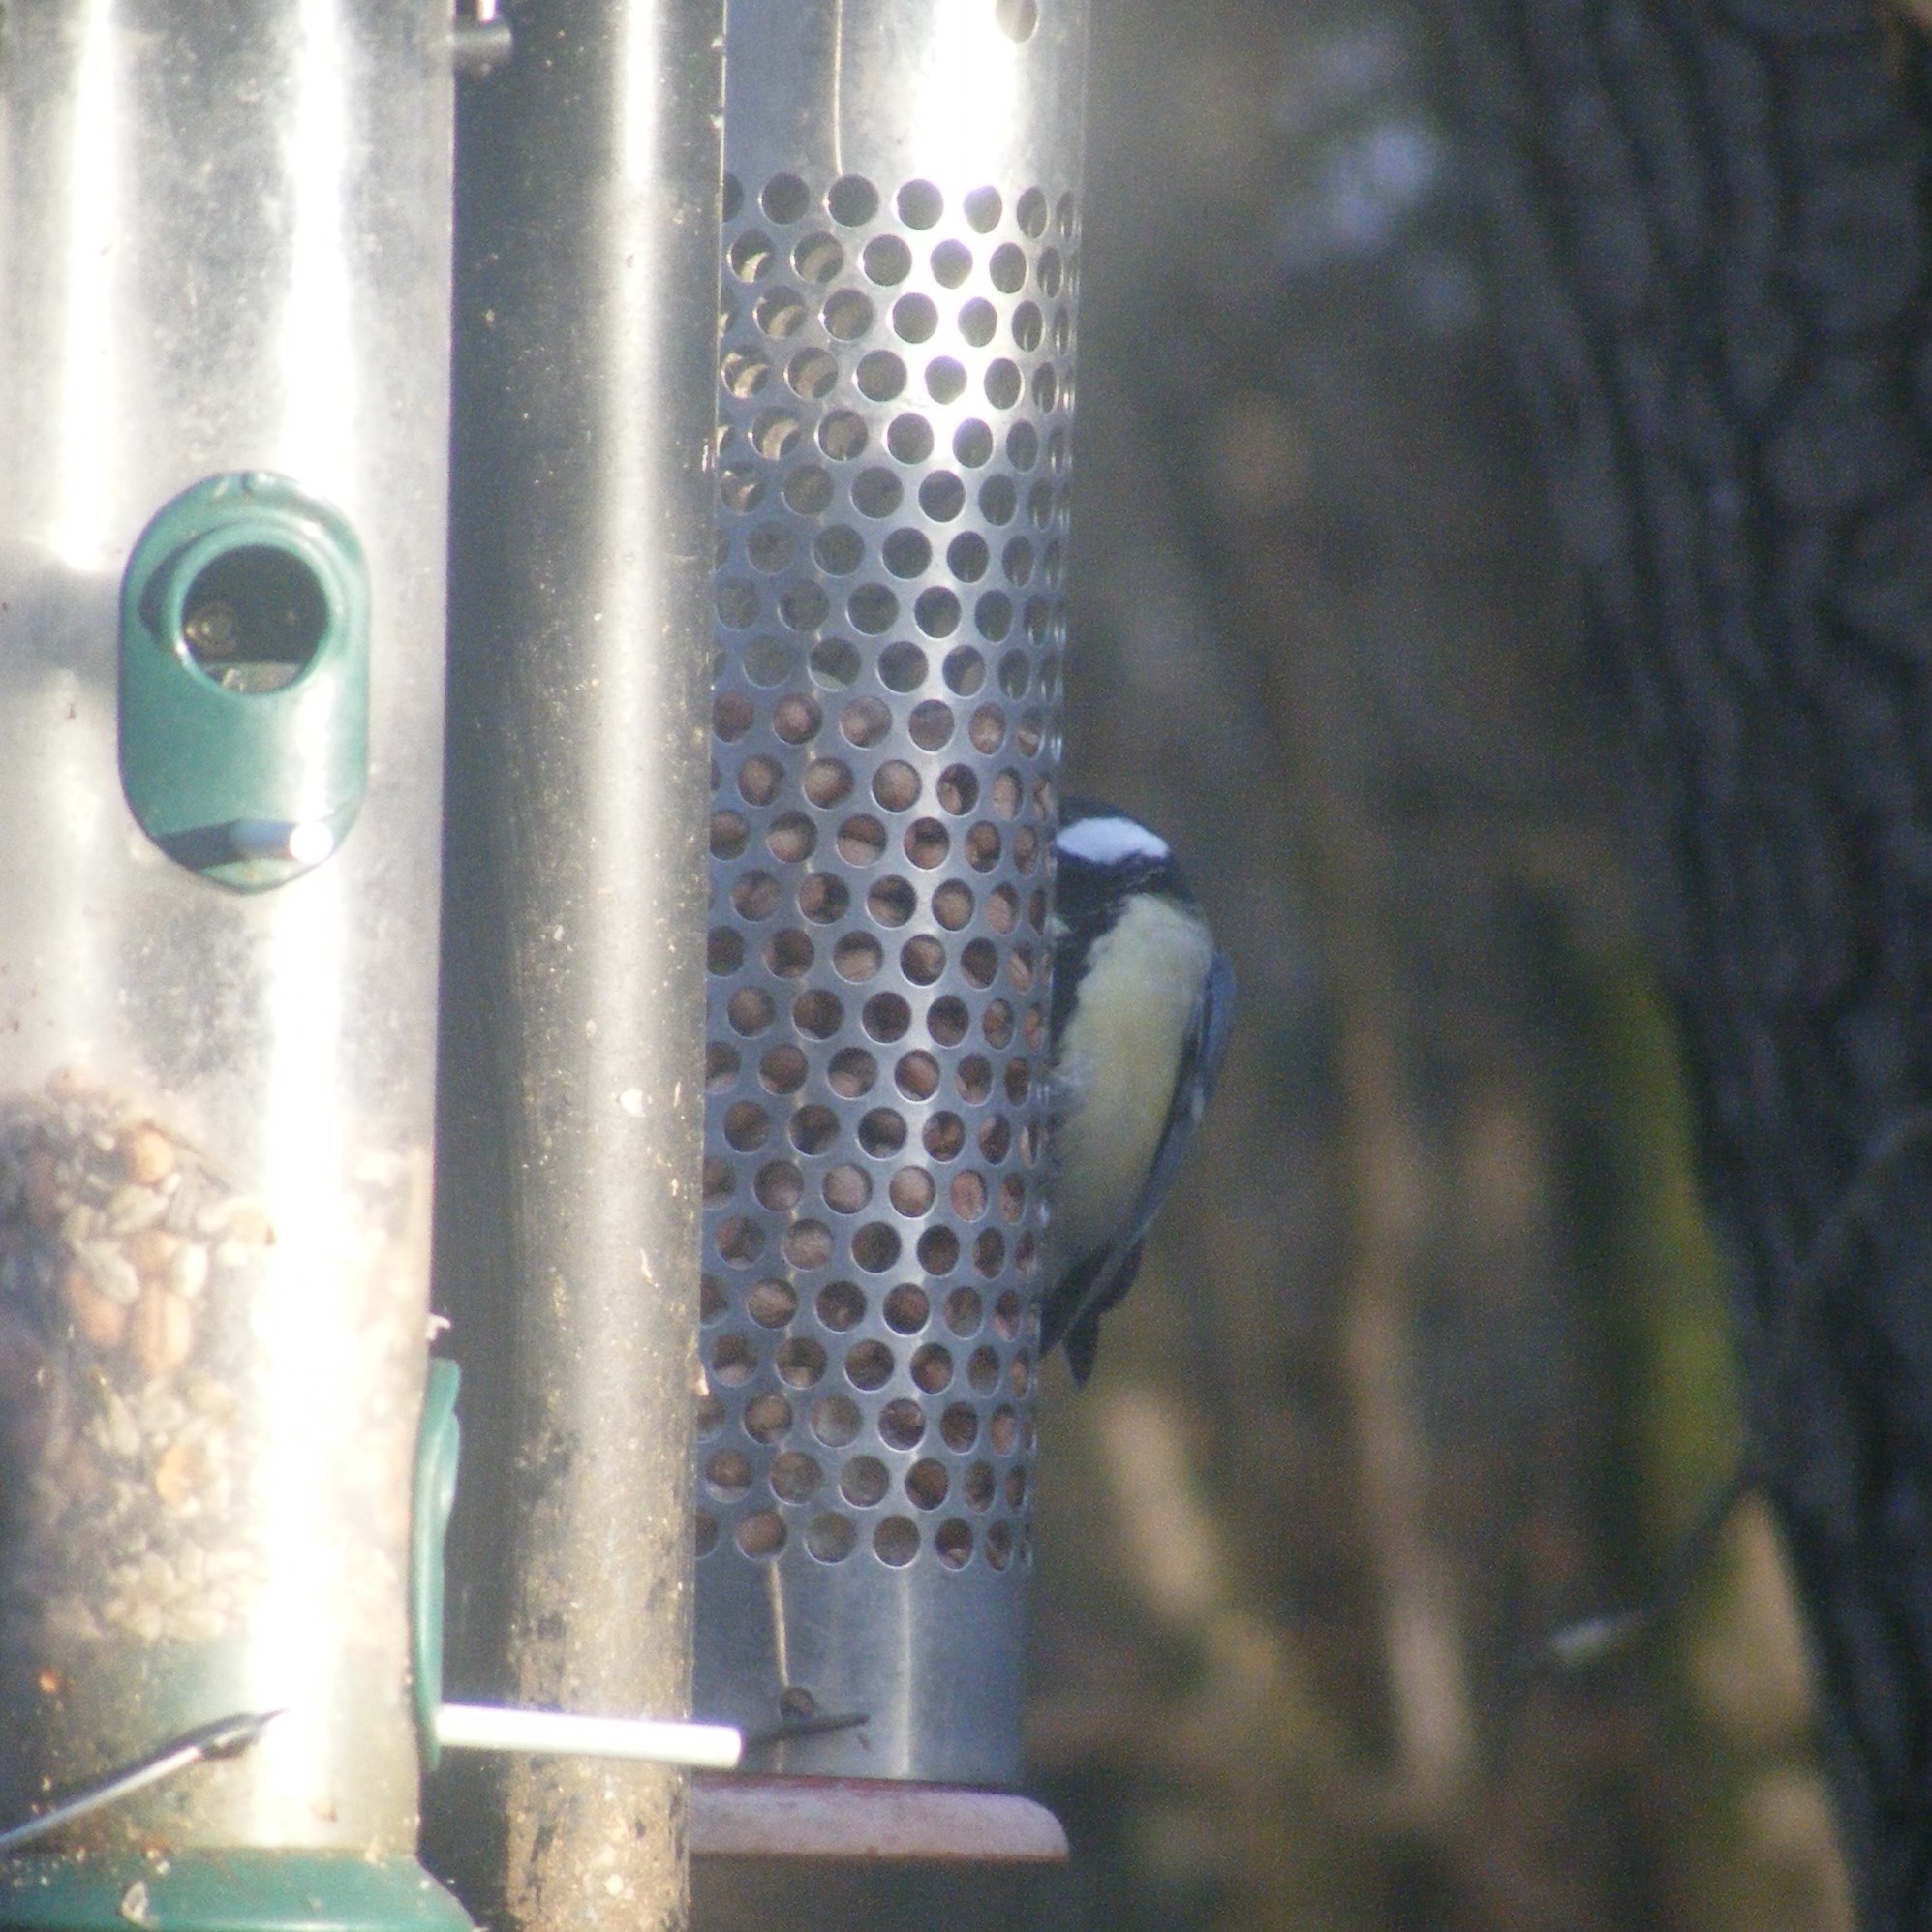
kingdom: Animalia
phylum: Chordata
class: Aves
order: Passeriformes
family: Paridae
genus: Parus
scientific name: Parus major
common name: Great tit
